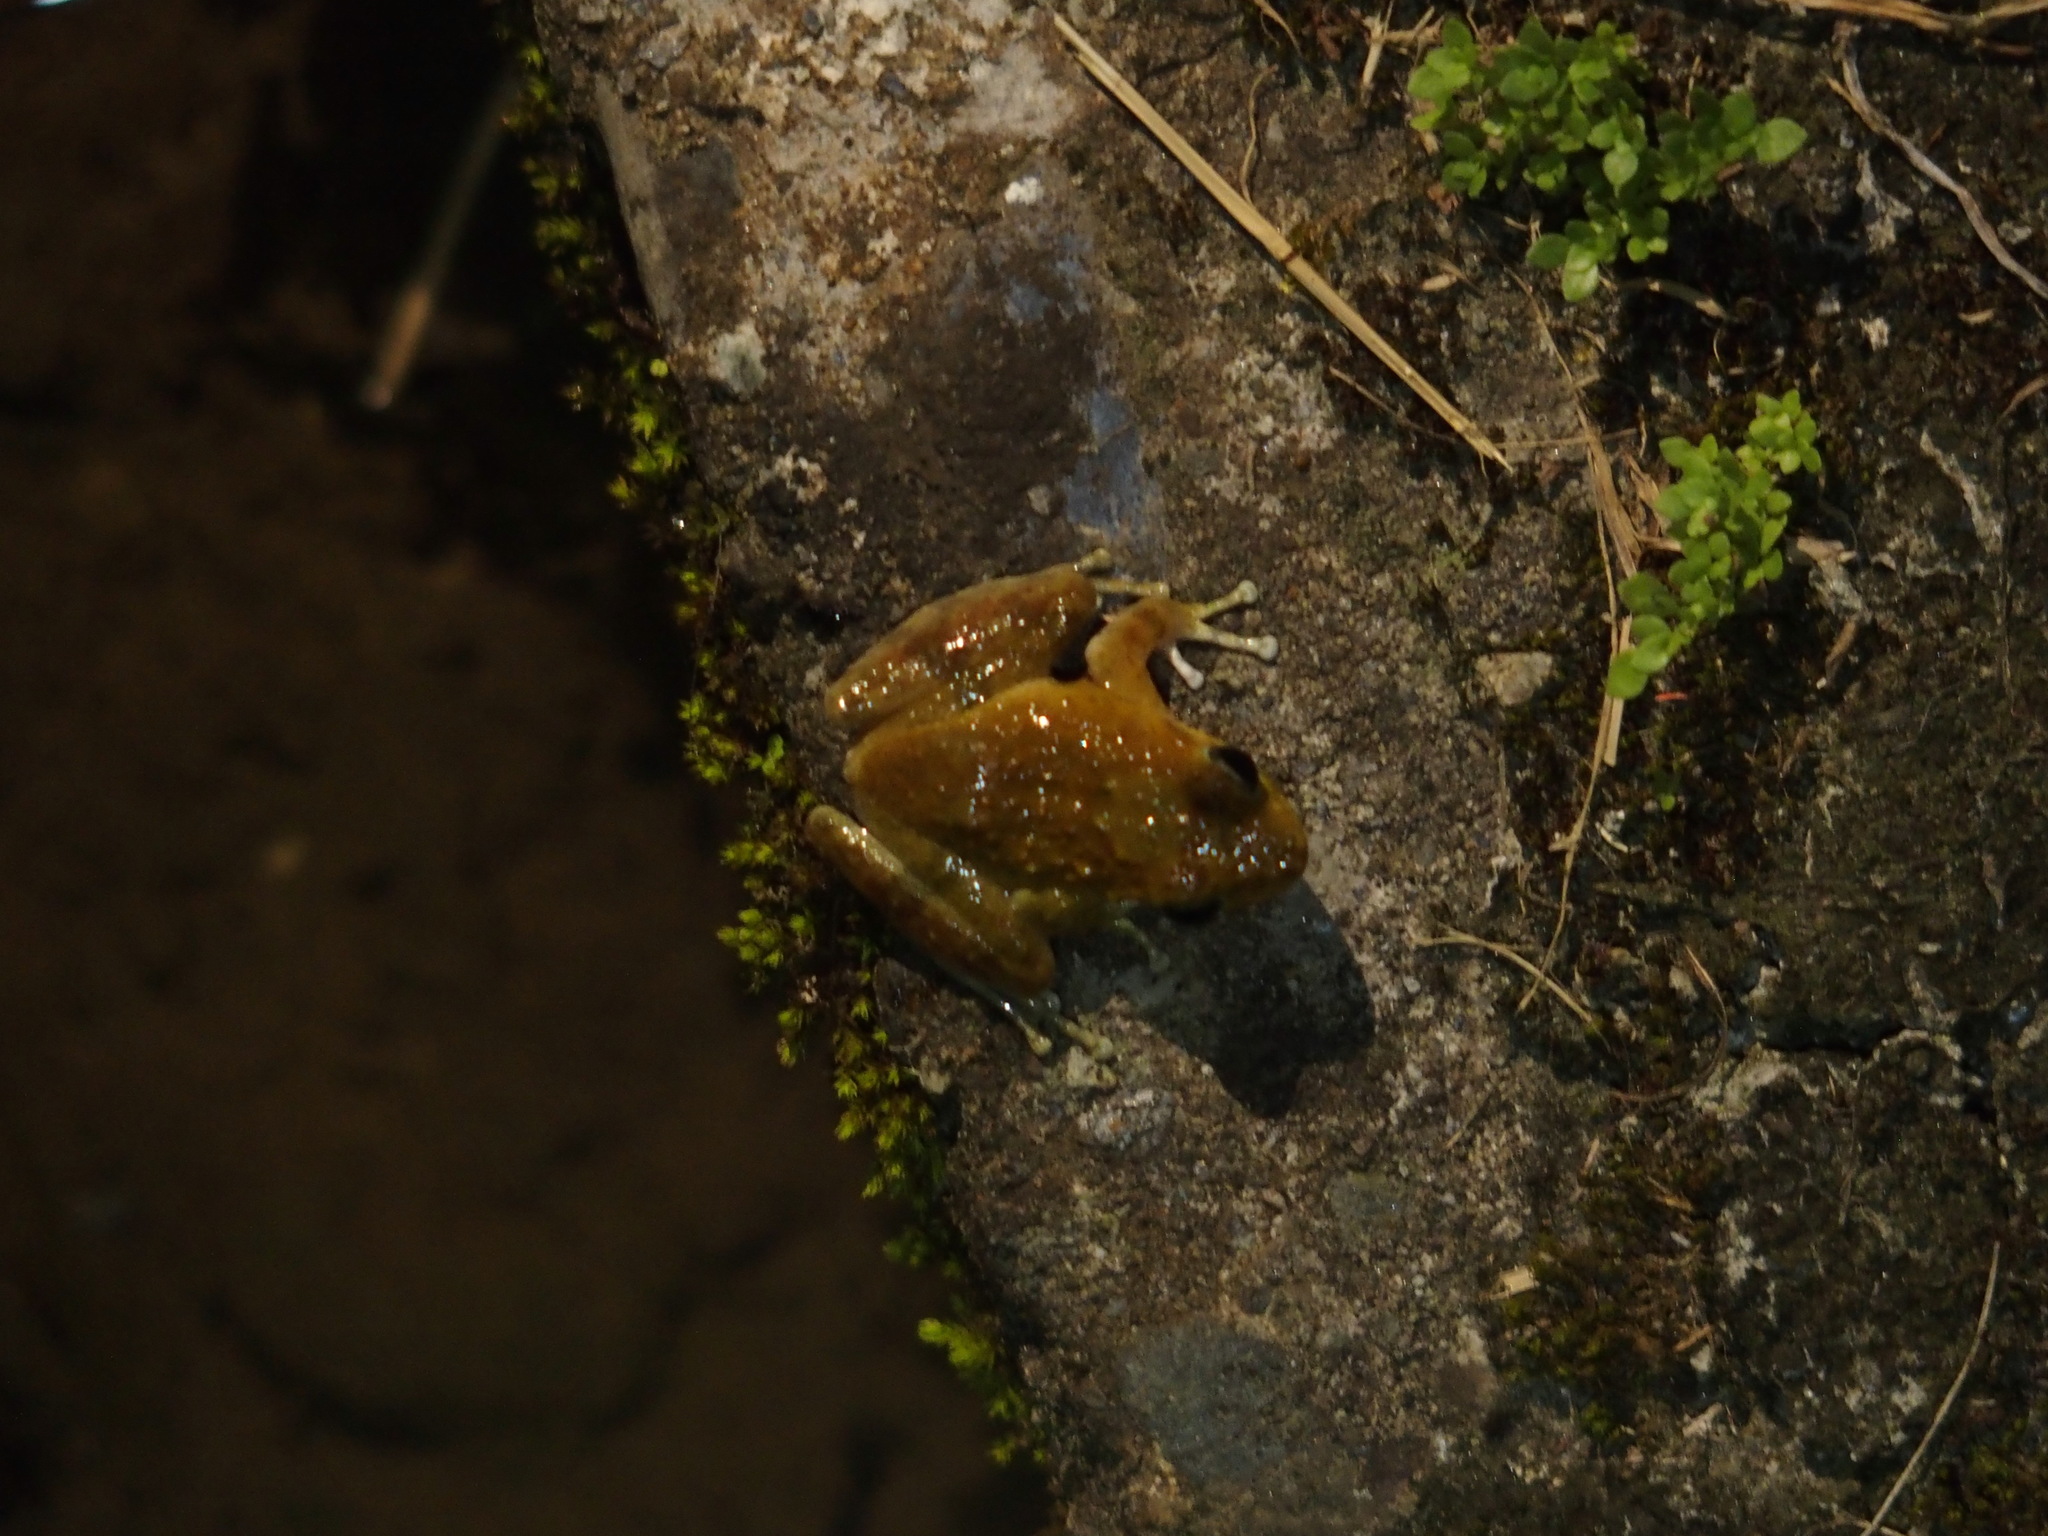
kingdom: Animalia
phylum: Chordata
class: Amphibia
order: Anura
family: Rhacophoridae
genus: Buergeria
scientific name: Buergeria otai
